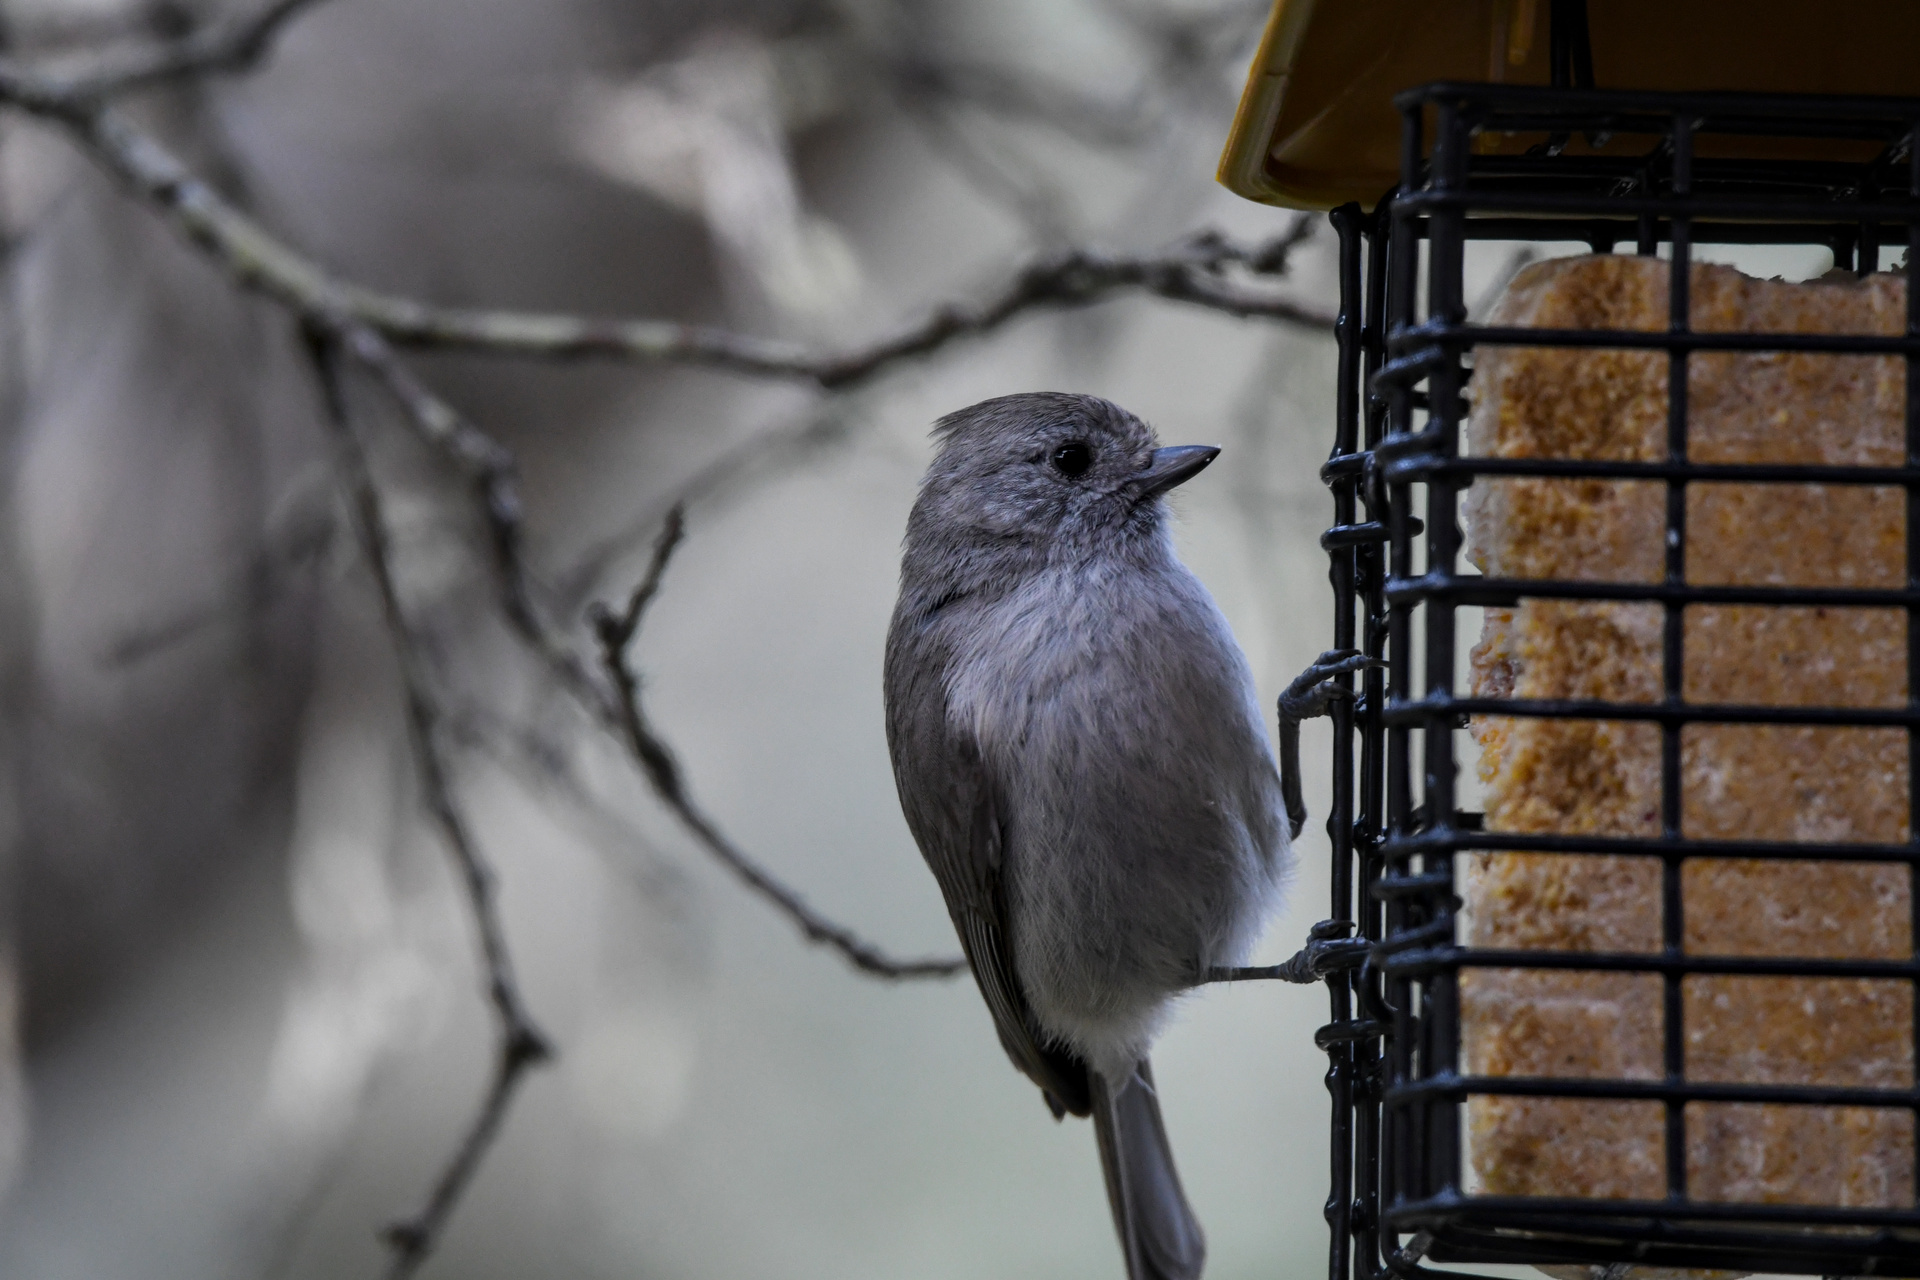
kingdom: Animalia
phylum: Chordata
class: Aves
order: Passeriformes
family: Paridae
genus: Baeolophus
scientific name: Baeolophus inornatus
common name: Oak titmouse
